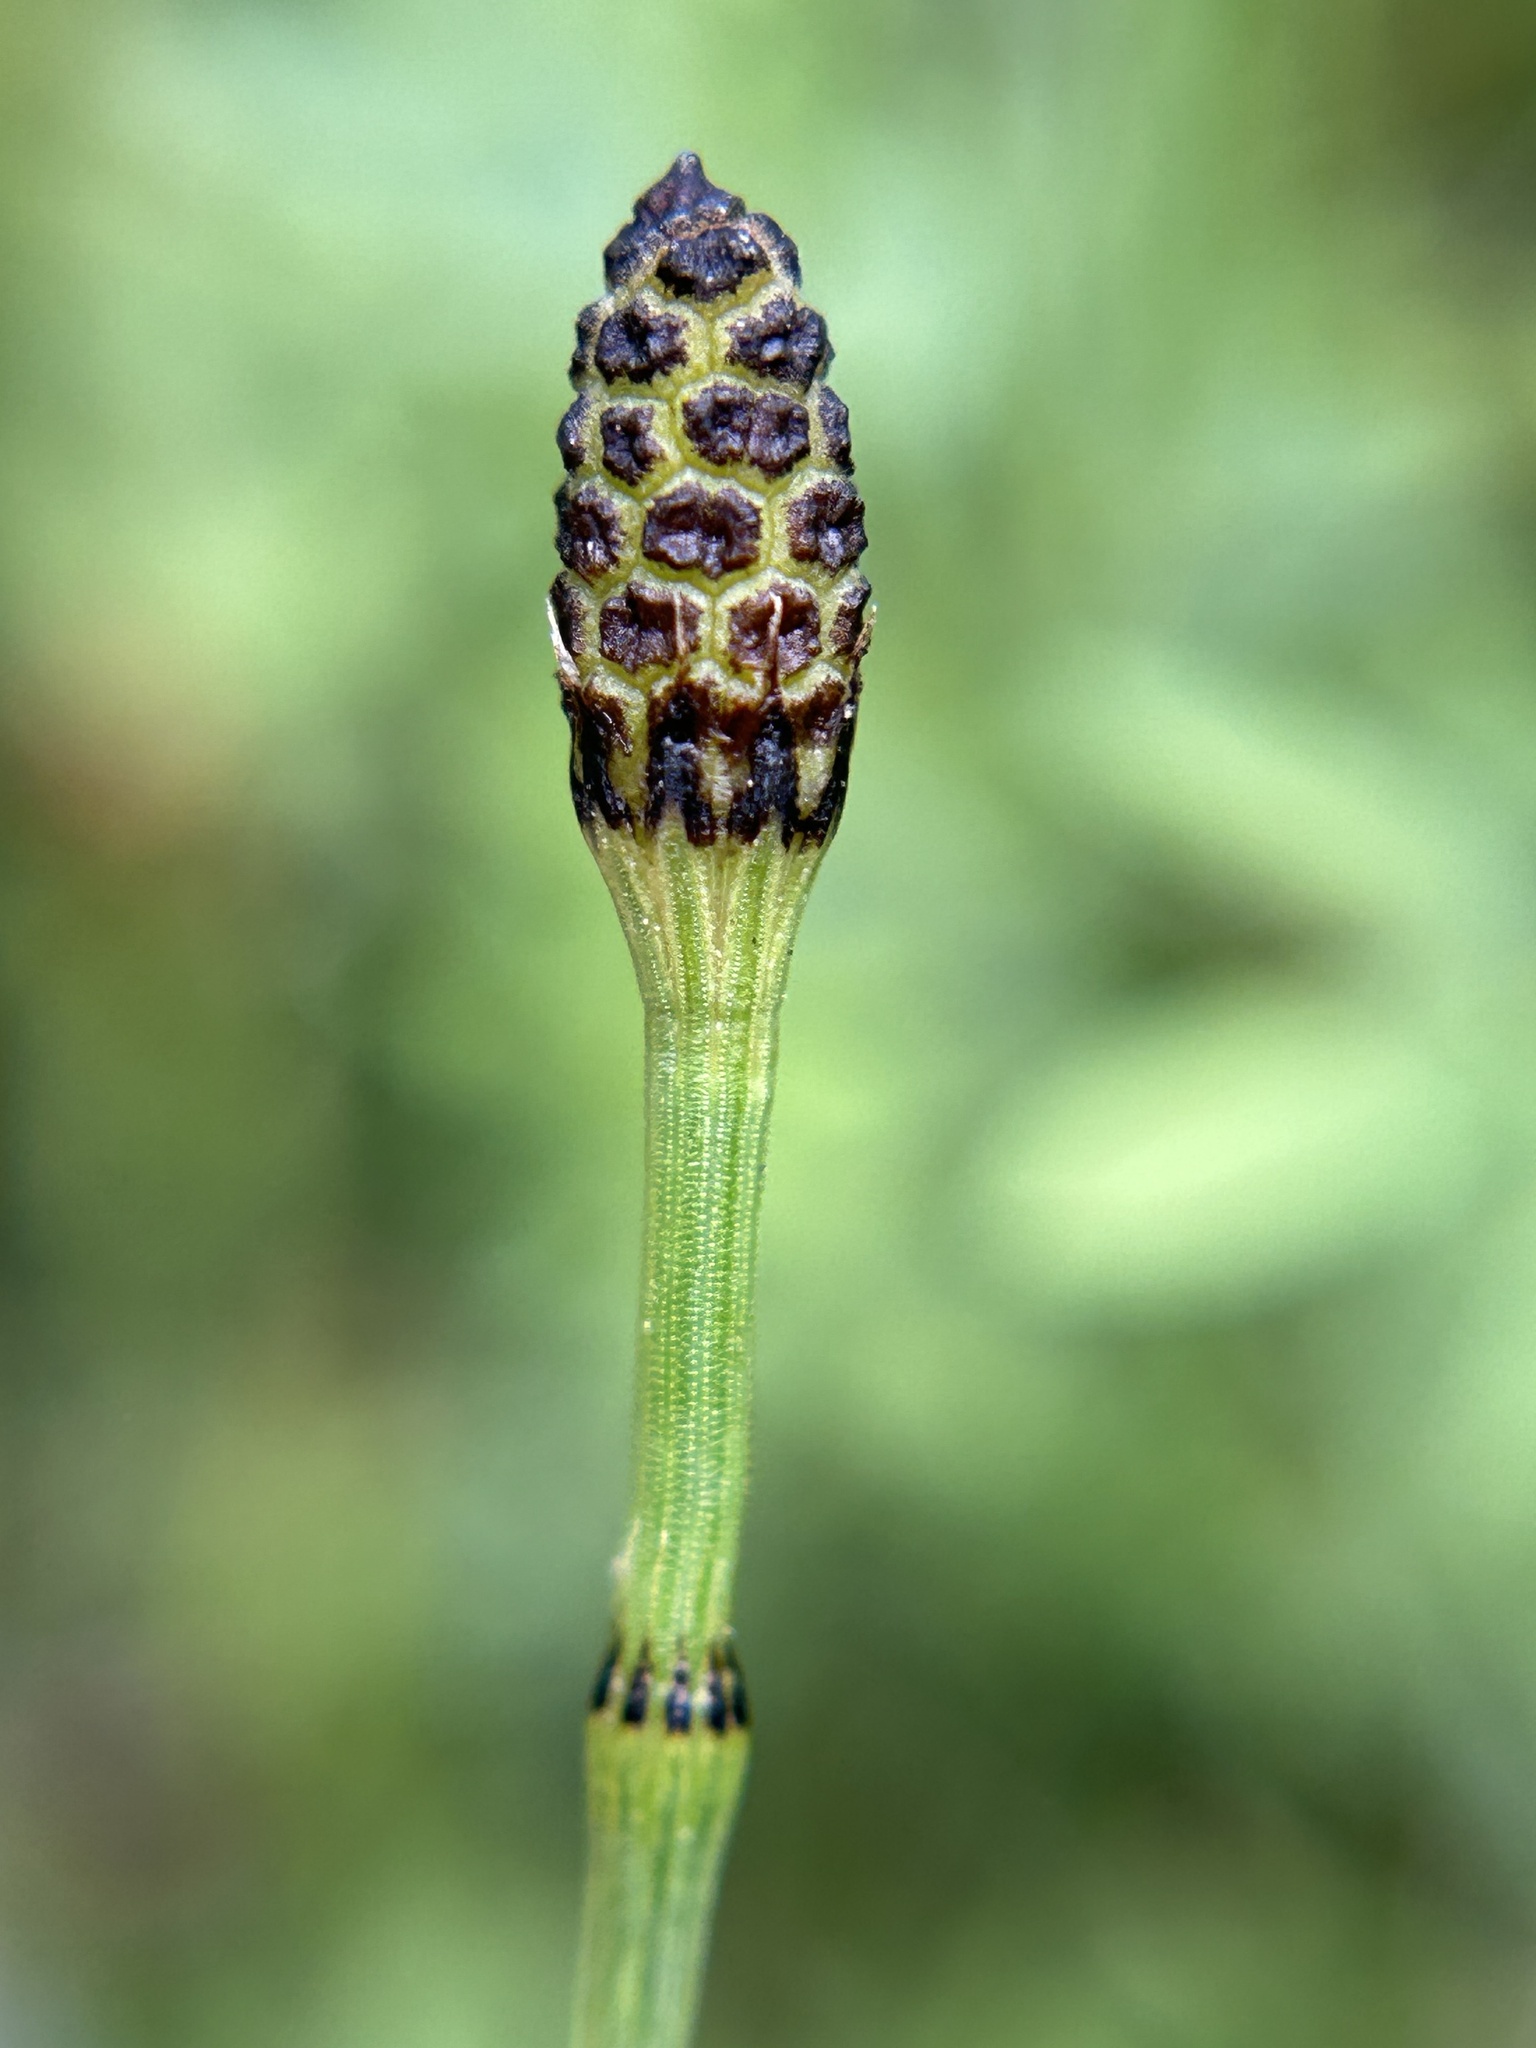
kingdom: Plantae
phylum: Tracheophyta
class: Polypodiopsida
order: Equisetales
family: Equisetaceae
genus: Equisetum
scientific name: Equisetum laevigatum
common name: Smooth scouring-rush
